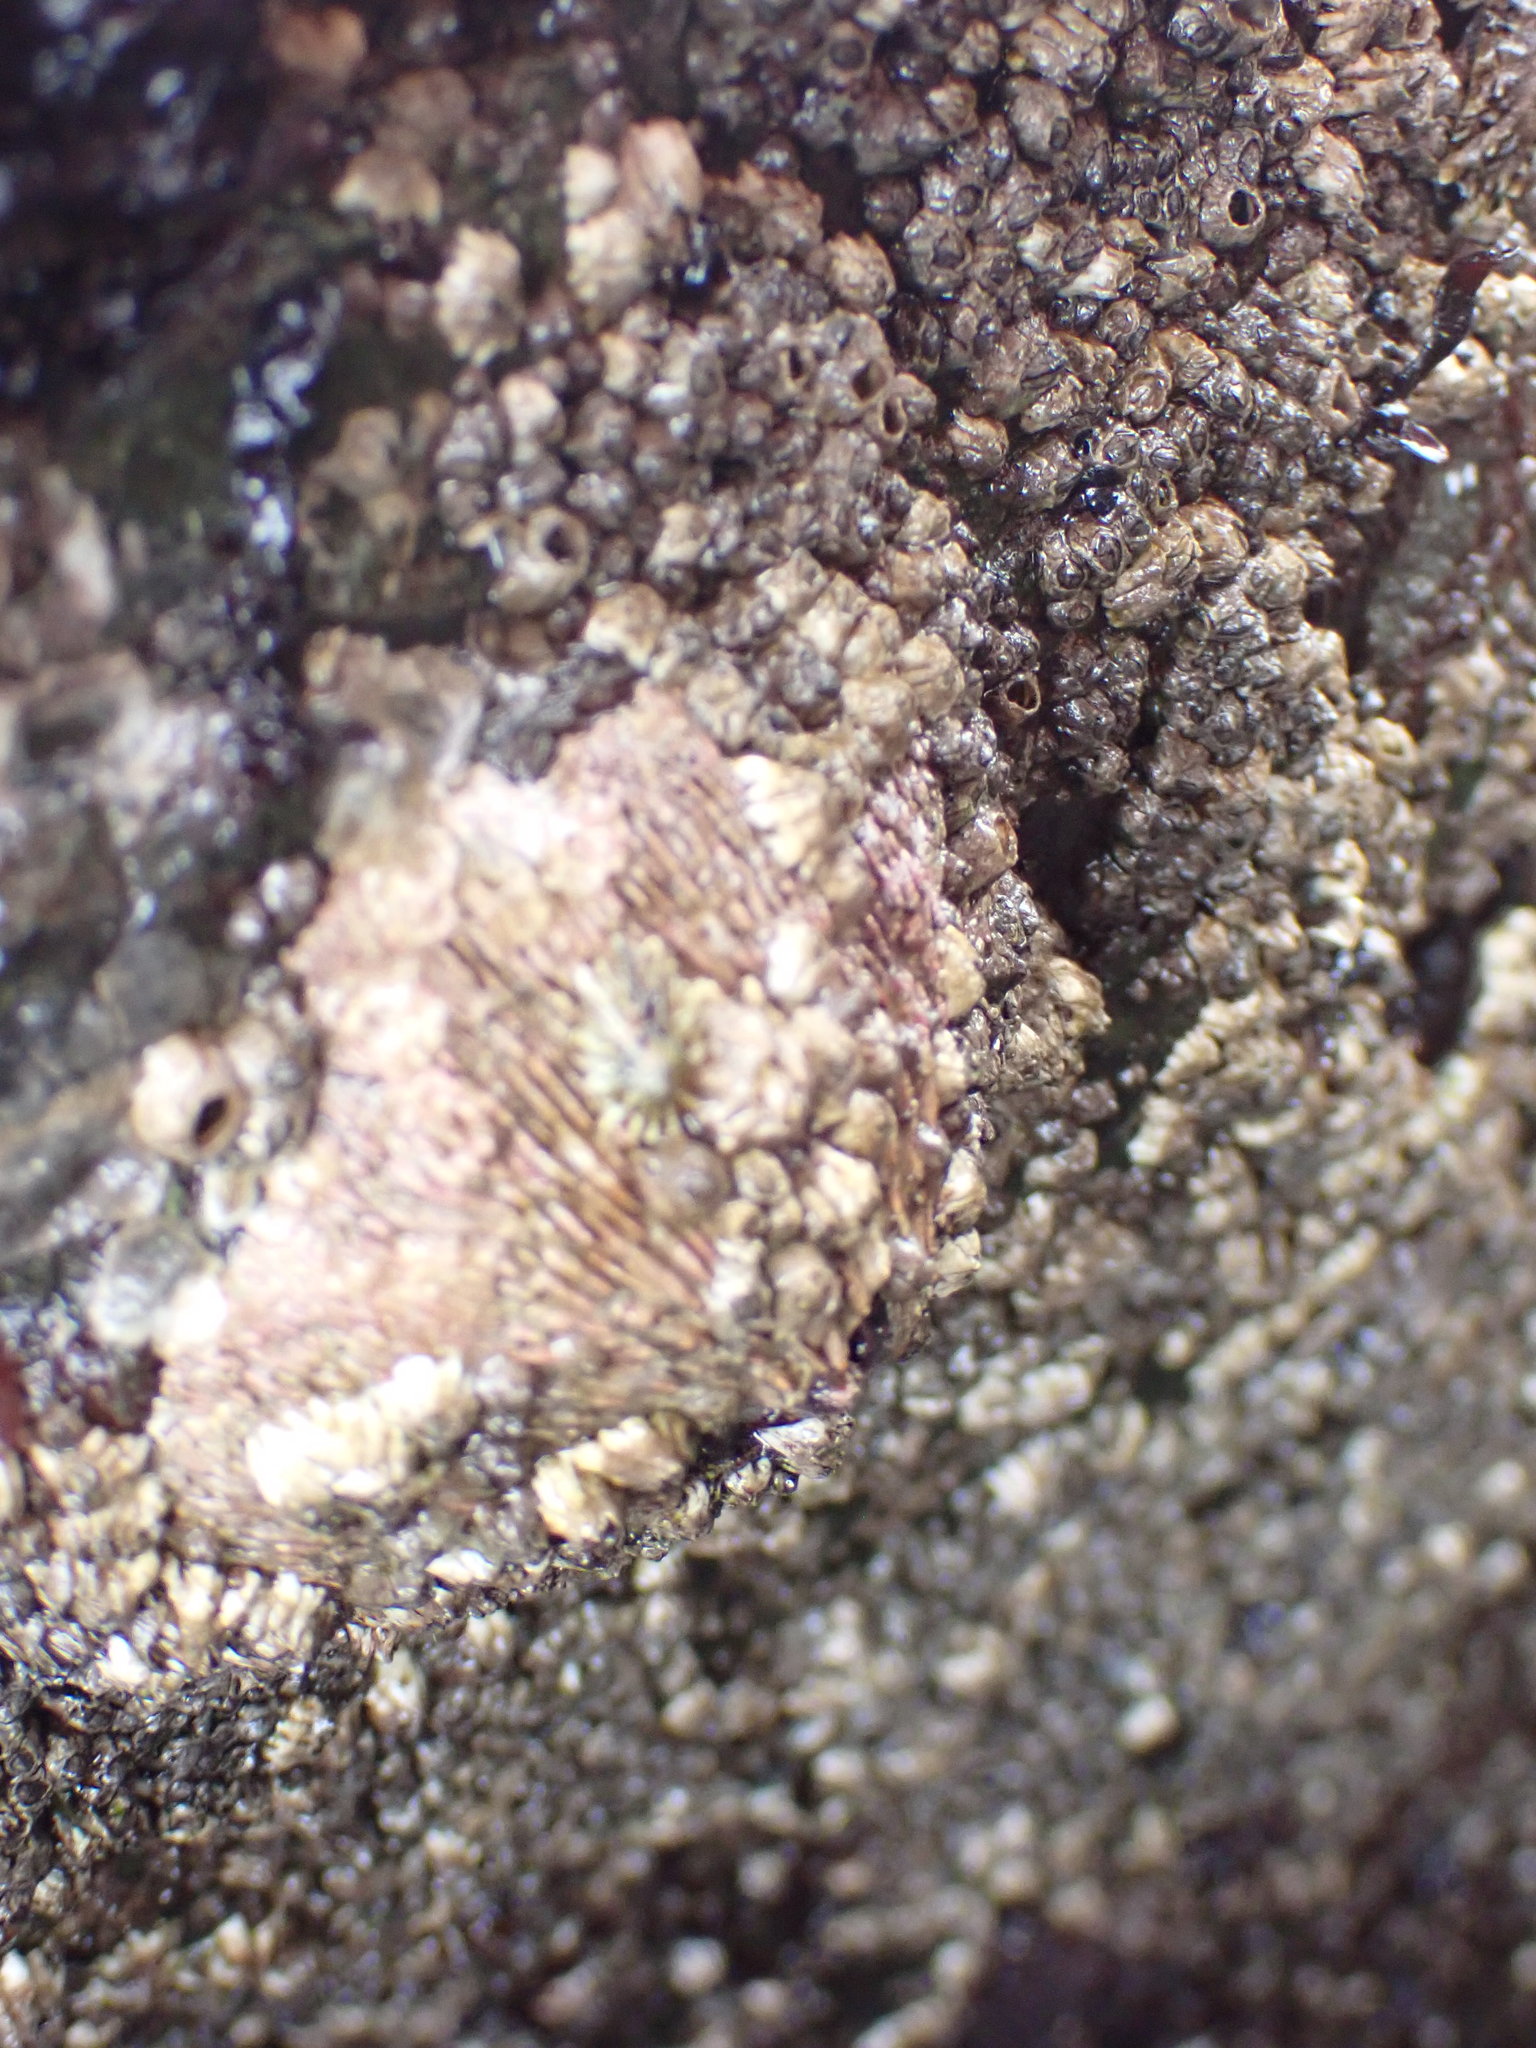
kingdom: Animalia
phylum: Arthropoda
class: Maxillopoda
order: Sessilia
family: Tetraclitidae
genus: Tetraclita
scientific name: Tetraclita rubescens
